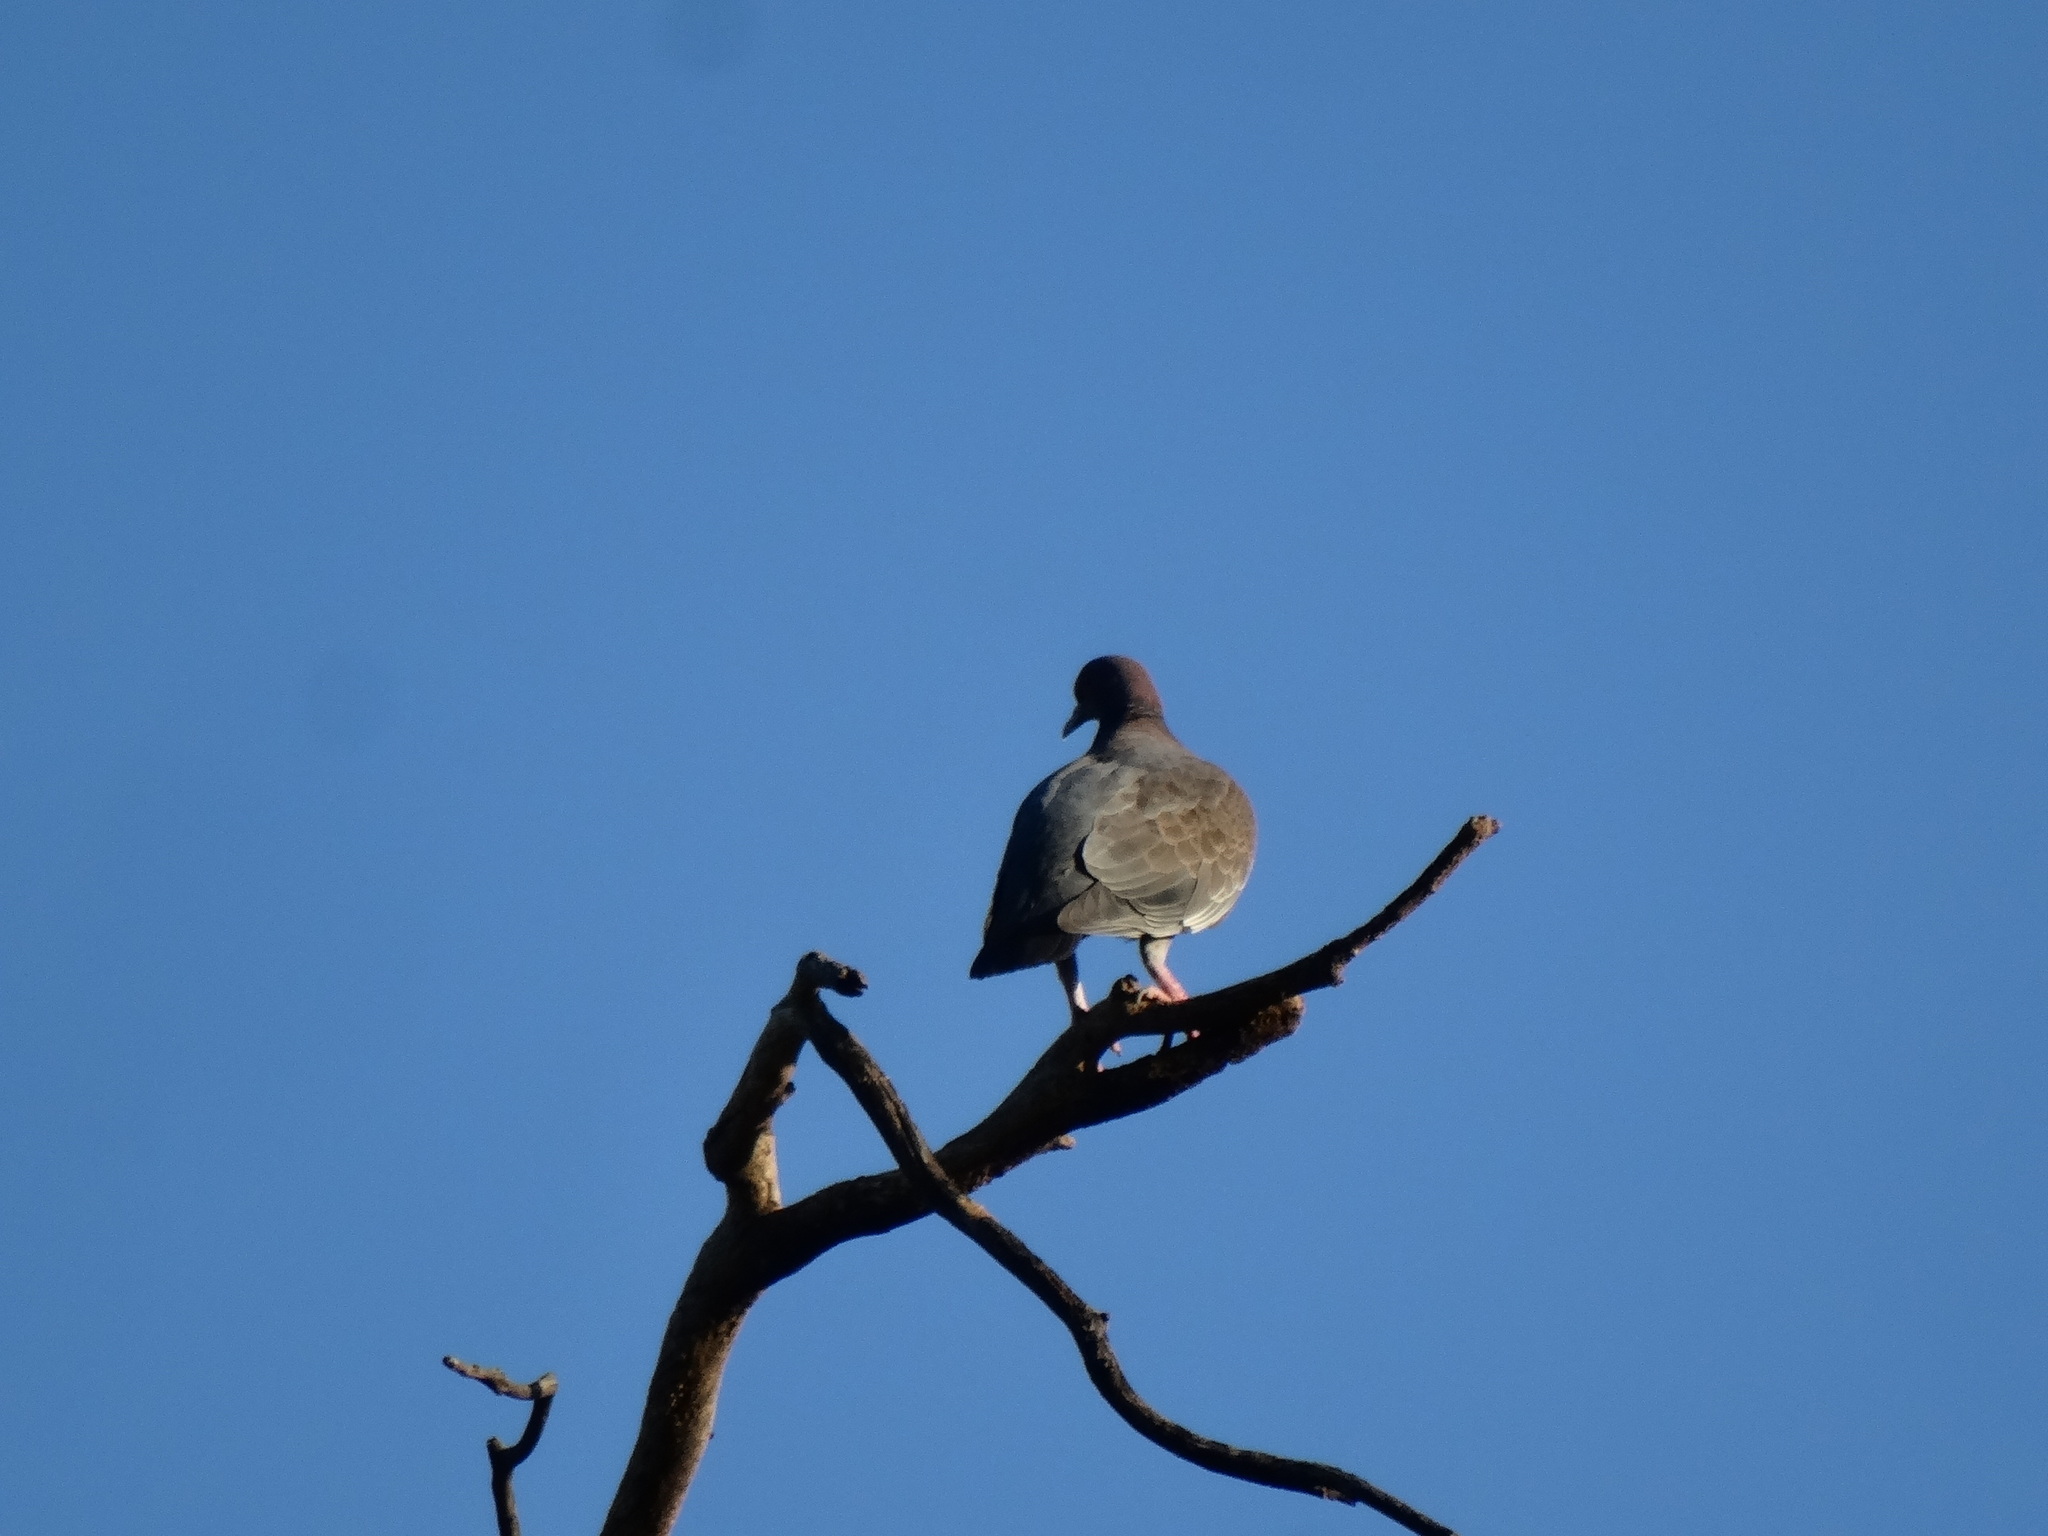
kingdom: Animalia
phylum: Chordata
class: Aves
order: Columbiformes
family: Columbidae
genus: Patagioenas
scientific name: Patagioenas picazuro
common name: Picazuro pigeon
